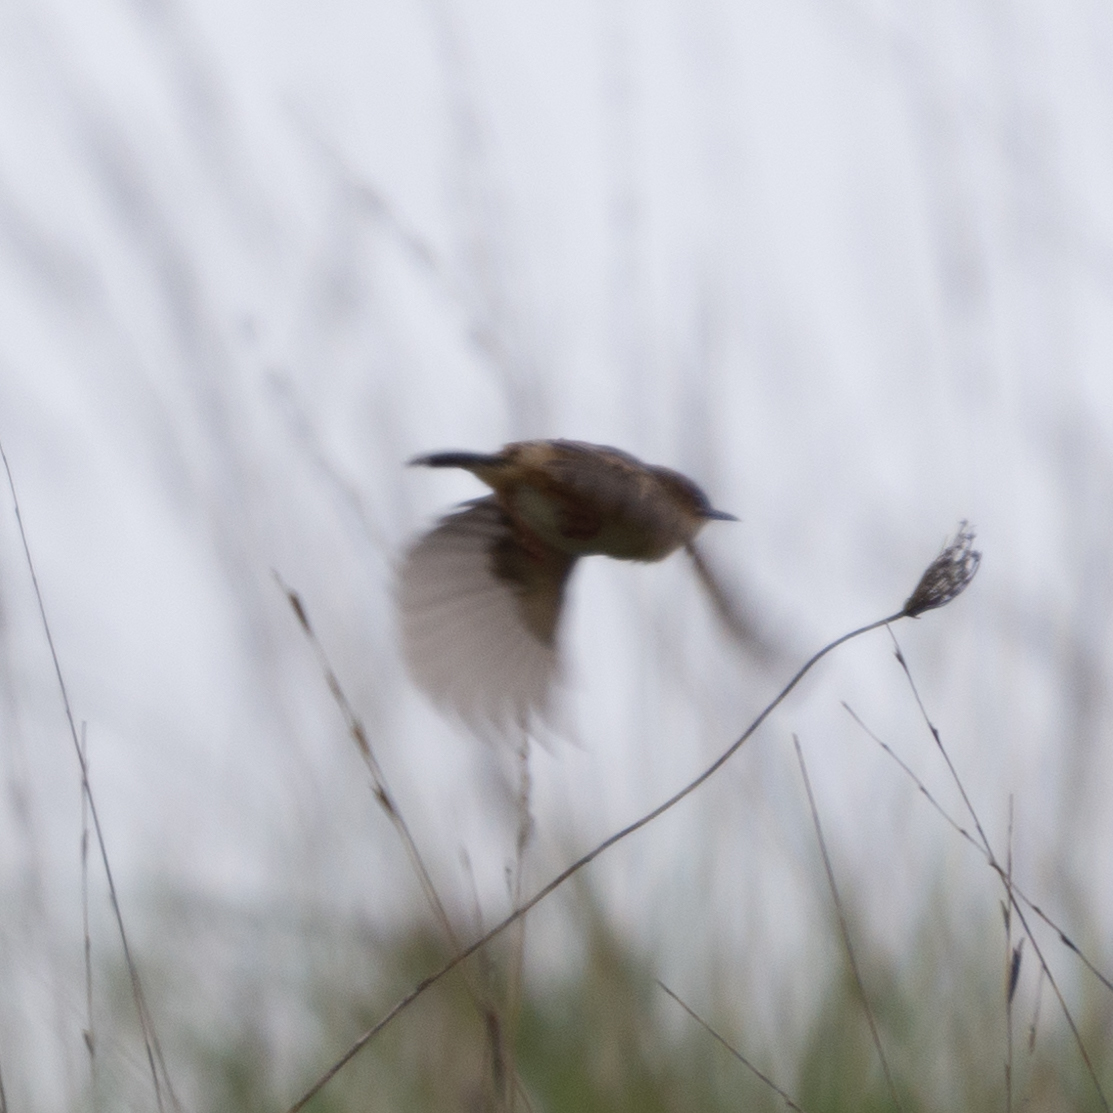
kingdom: Animalia
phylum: Chordata
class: Aves
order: Passeriformes
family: Cisticolidae
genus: Cisticola
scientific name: Cisticola juncidis
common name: Zitting cisticola
